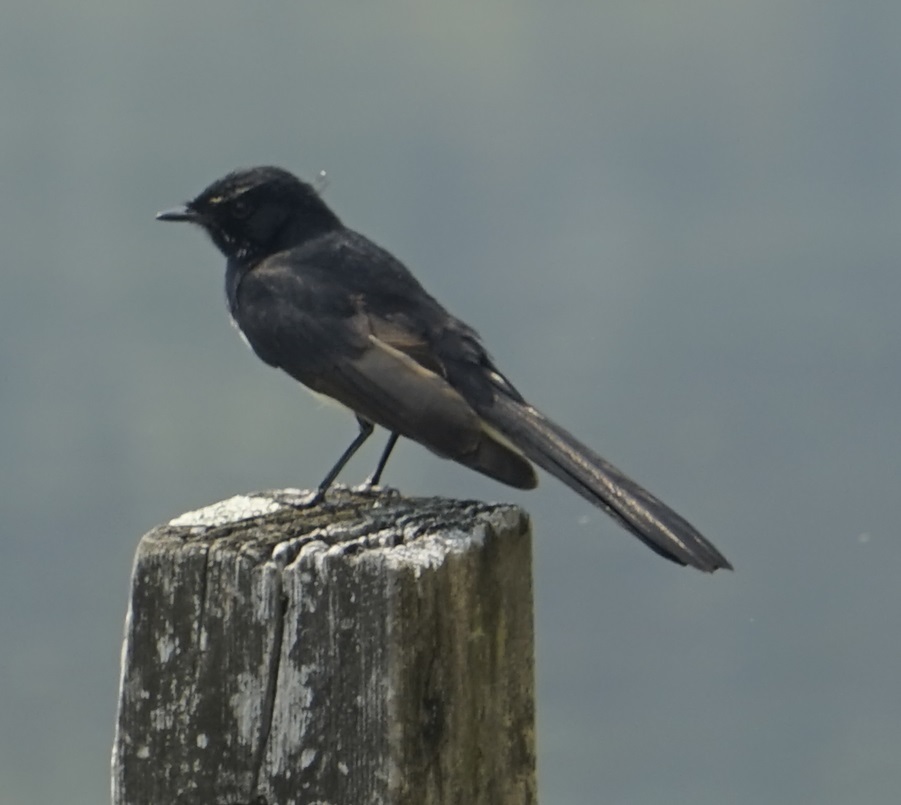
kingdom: Animalia
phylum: Chordata
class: Aves
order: Passeriformes
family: Rhipiduridae
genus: Rhipidura
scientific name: Rhipidura leucophrys
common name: Willie wagtail
